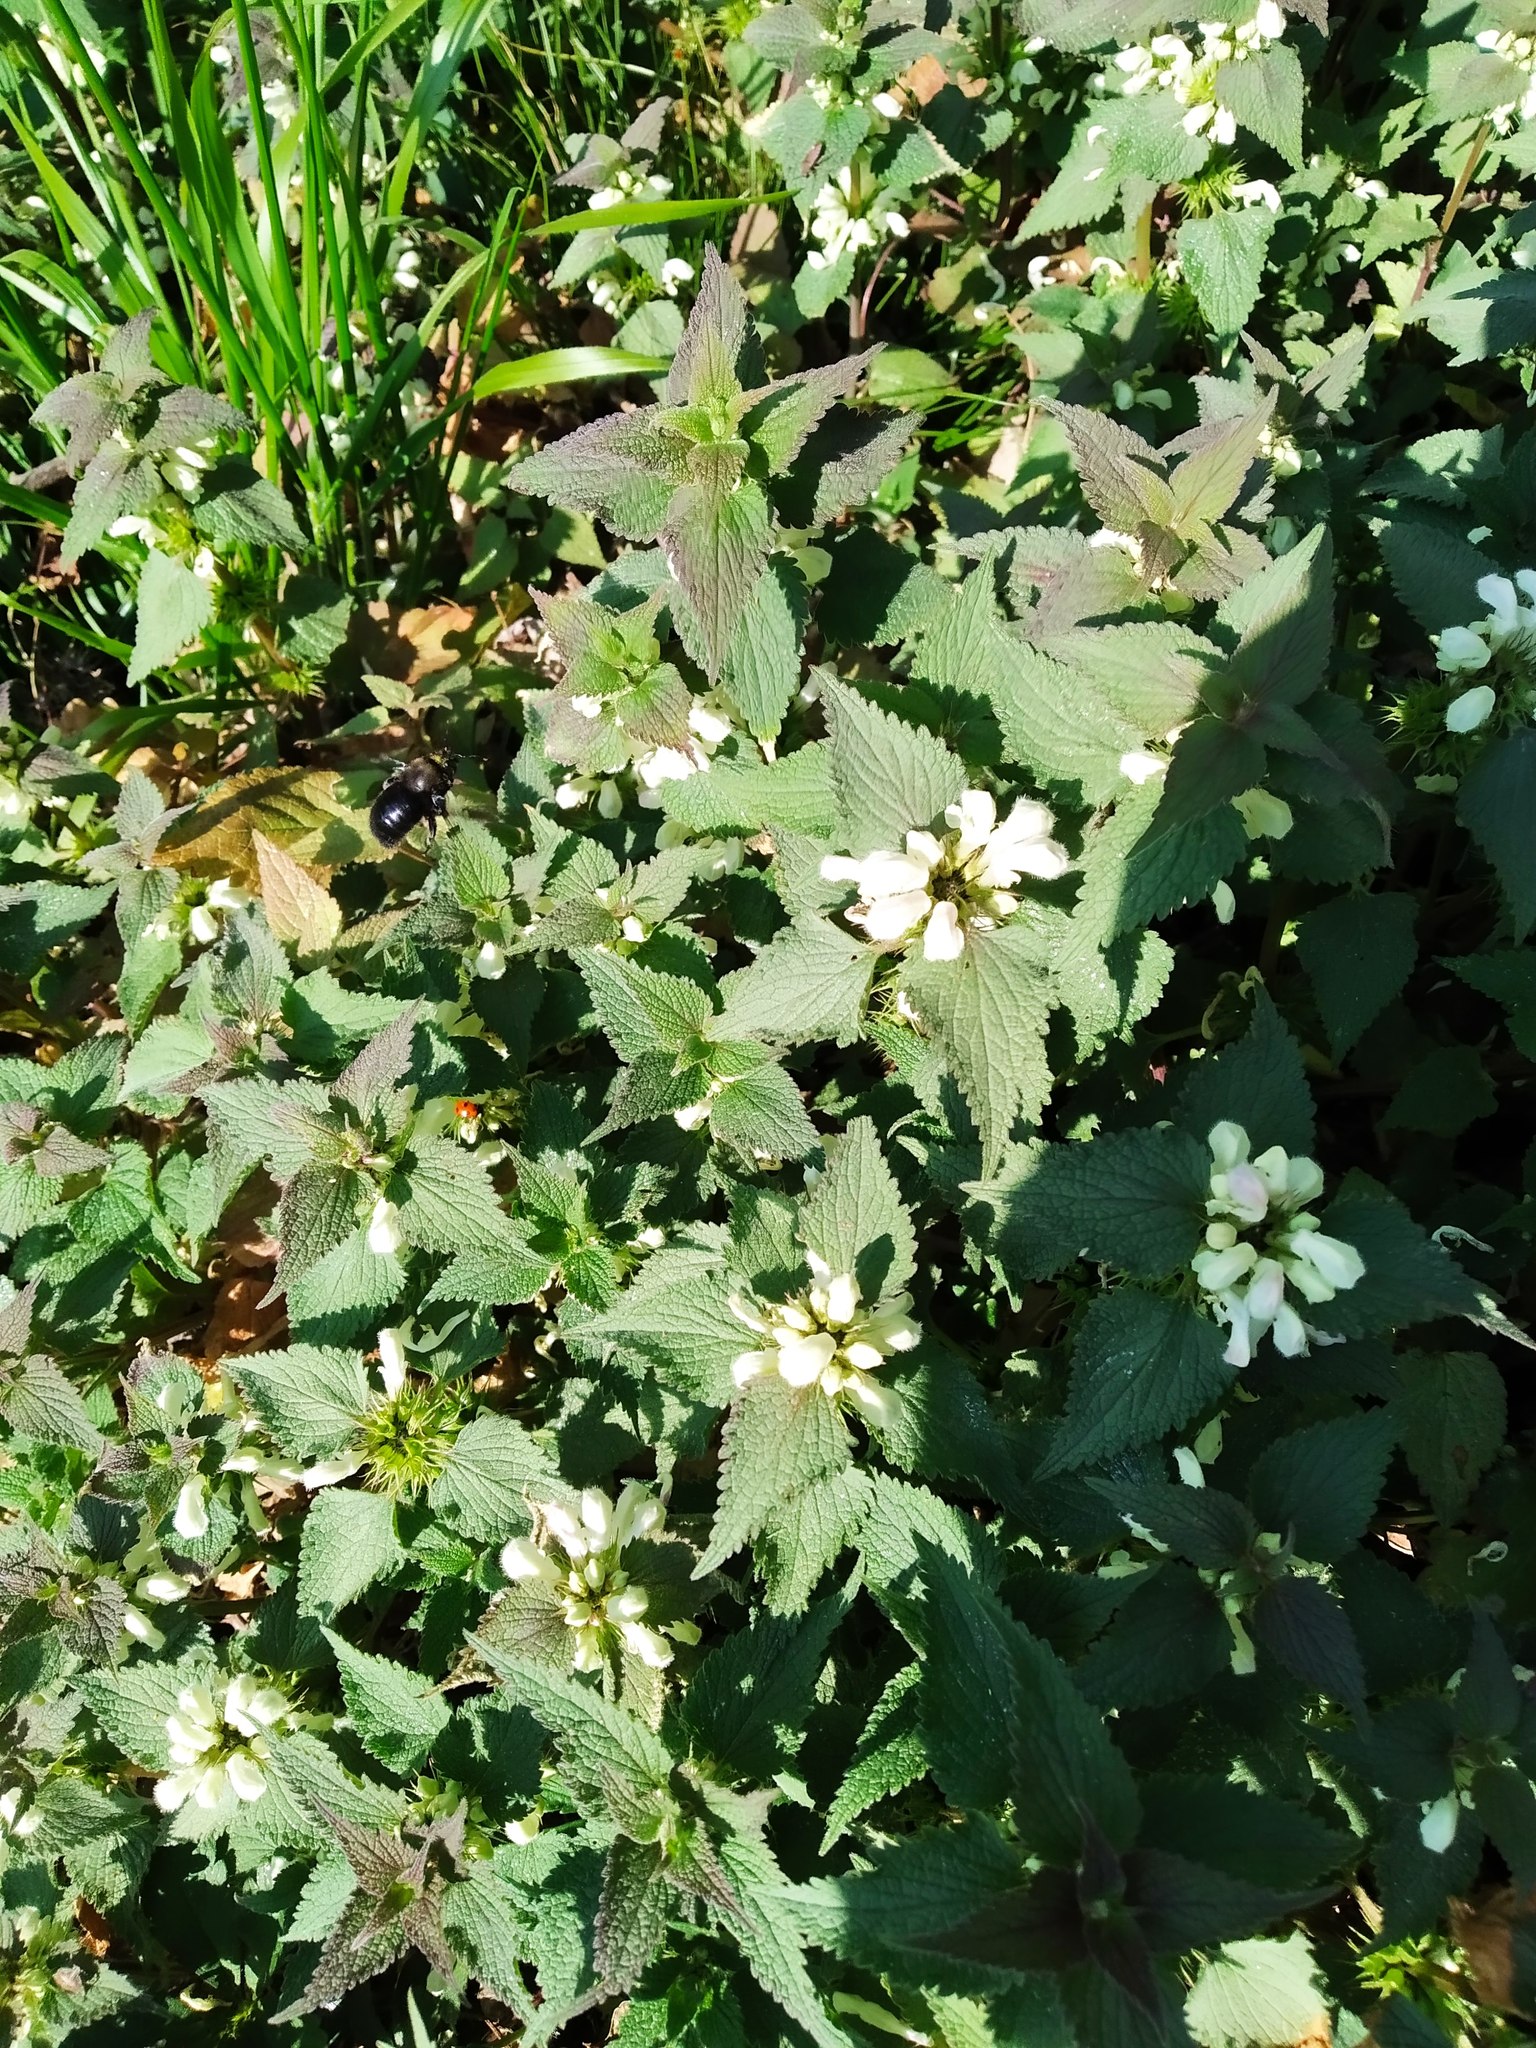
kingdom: Plantae
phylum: Tracheophyta
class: Magnoliopsida
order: Lamiales
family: Lamiaceae
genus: Lamium
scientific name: Lamium album
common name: White dead-nettle
